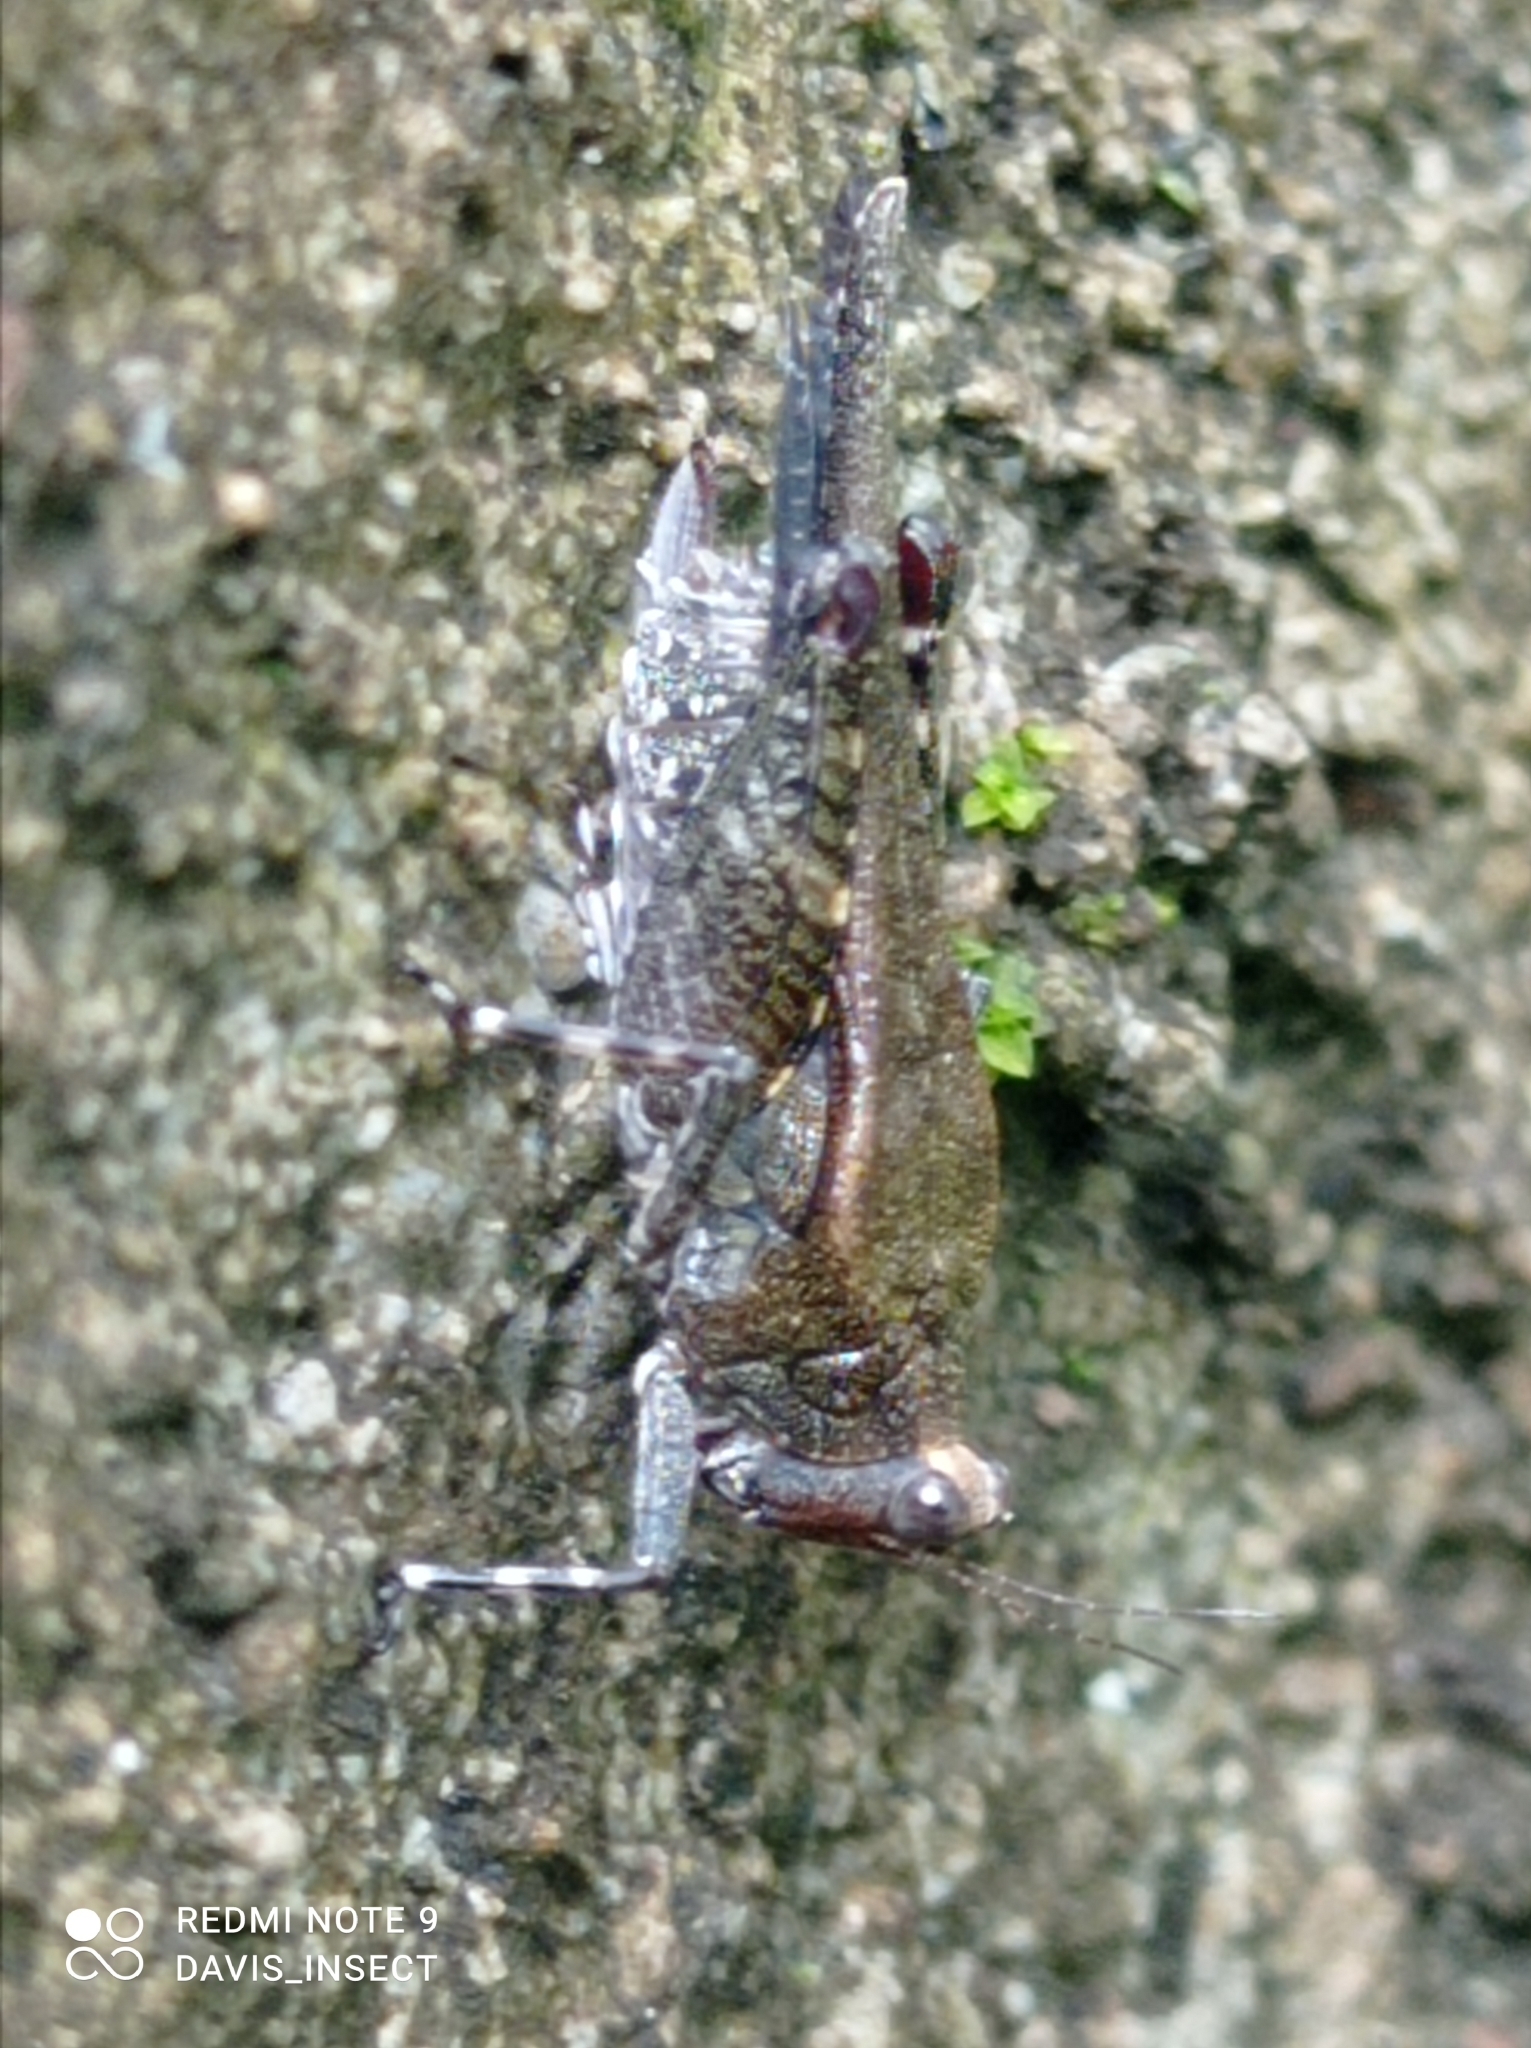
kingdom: Animalia
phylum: Arthropoda
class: Insecta
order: Orthoptera
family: Tetrigidae
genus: Timoritettix
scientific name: Timoritettix platynotus
